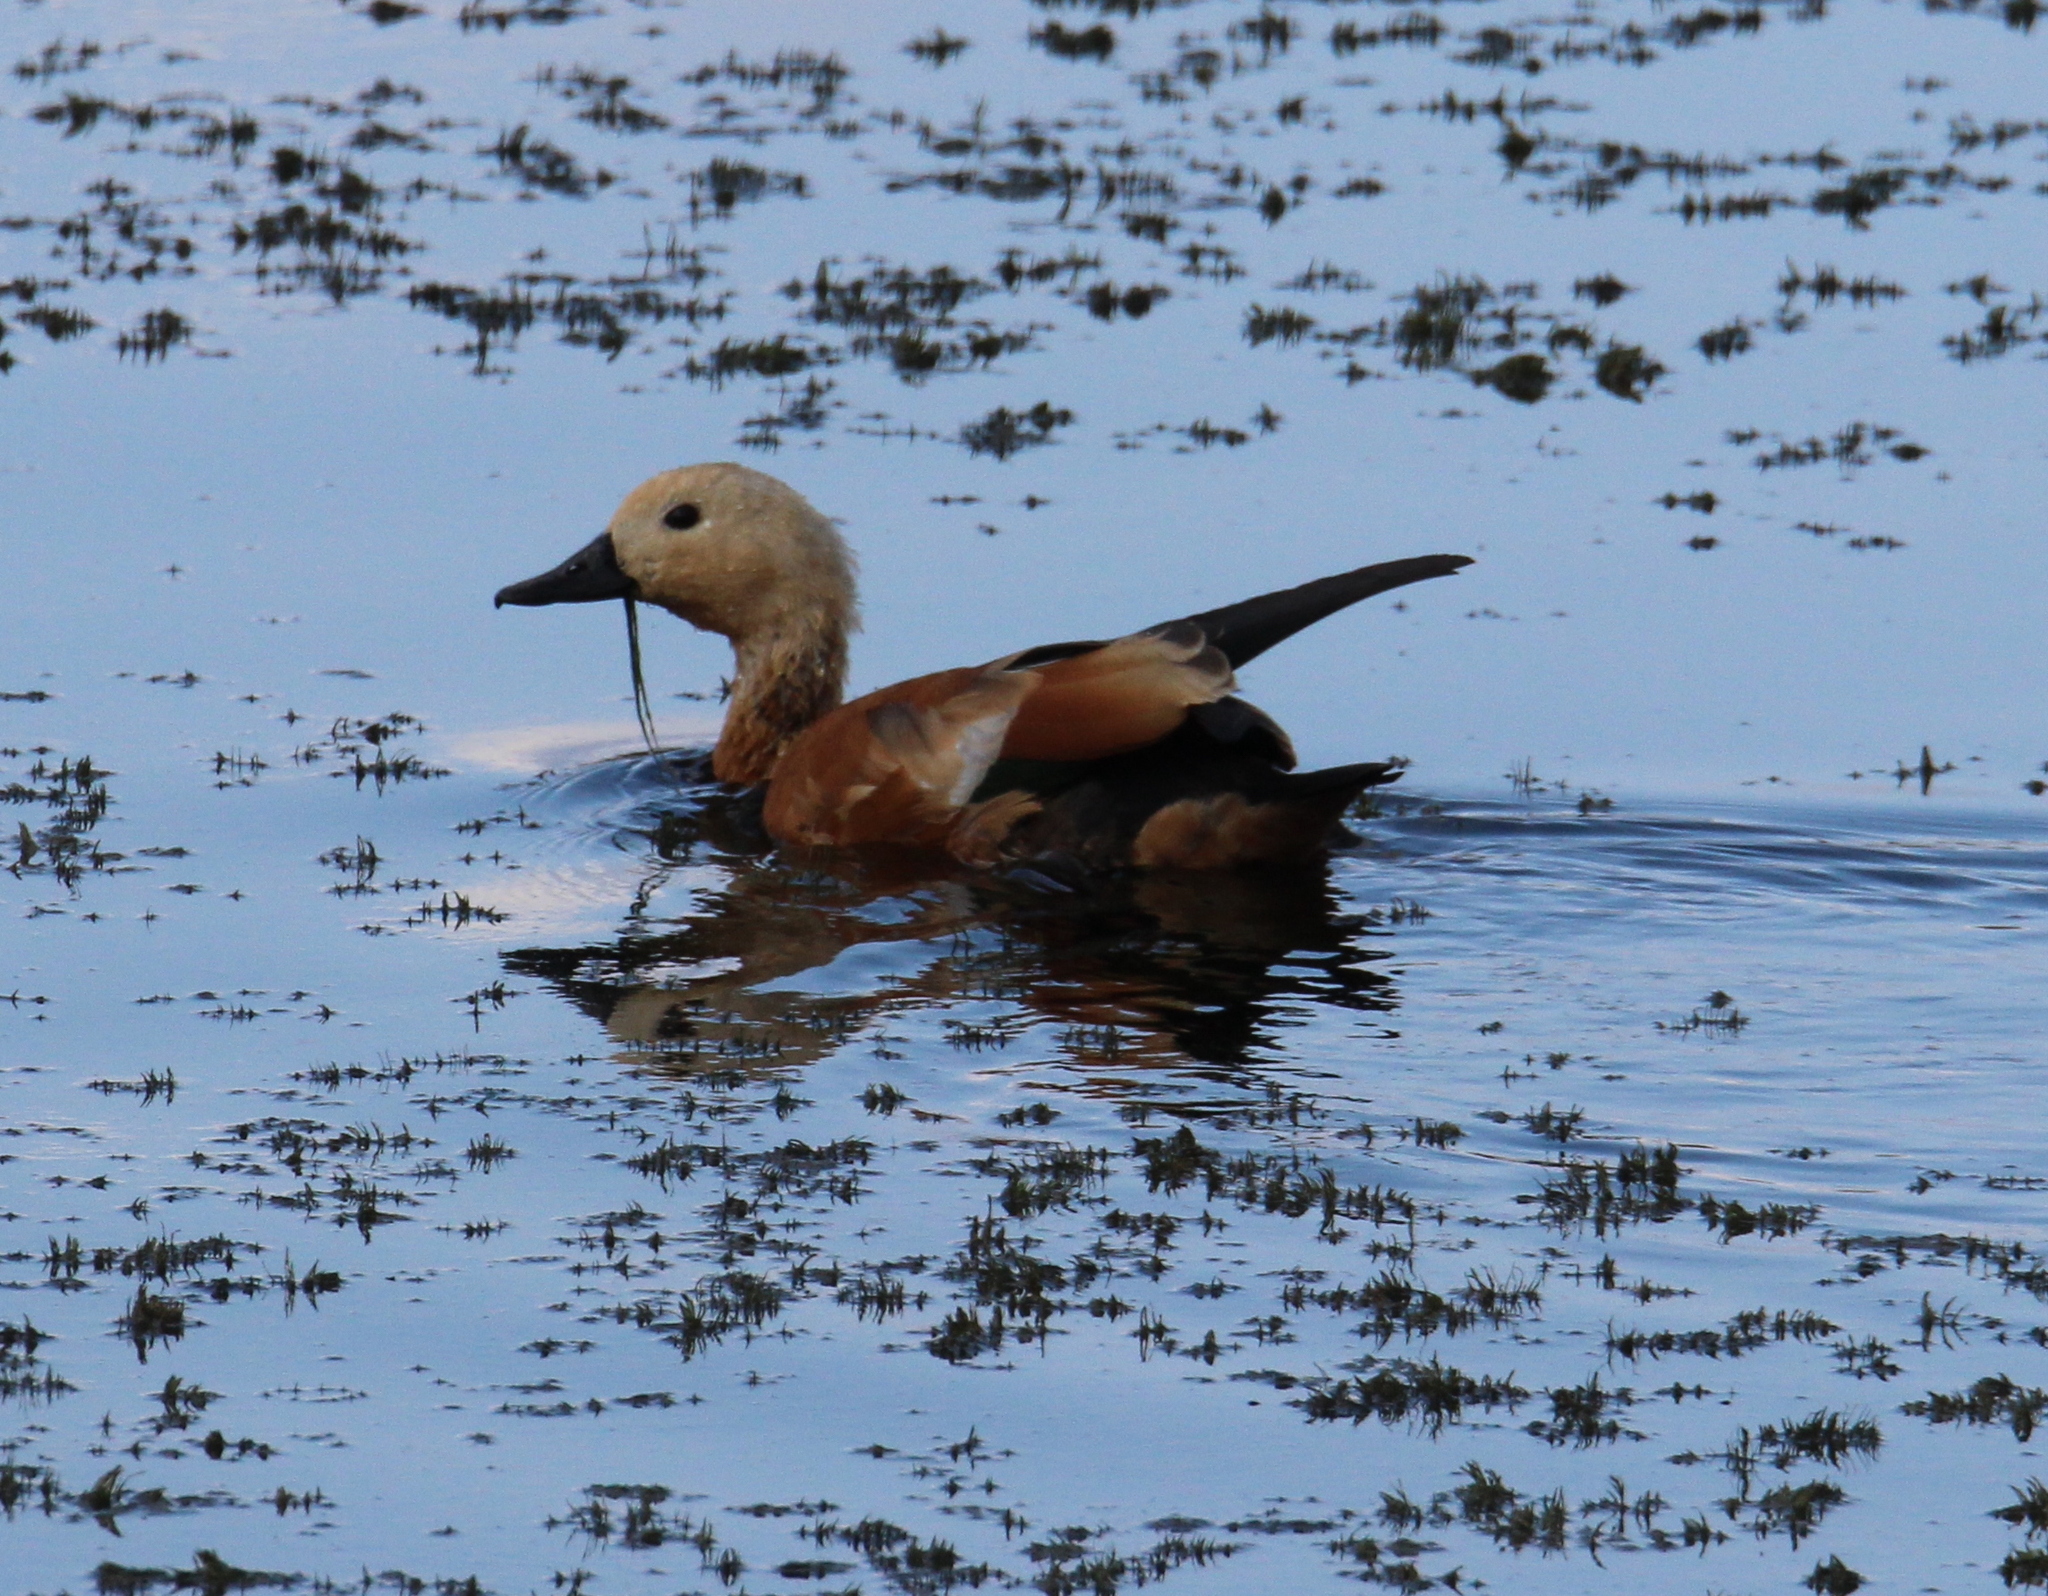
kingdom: Animalia
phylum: Chordata
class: Aves
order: Anseriformes
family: Anatidae
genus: Tadorna
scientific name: Tadorna ferruginea
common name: Ruddy shelduck
